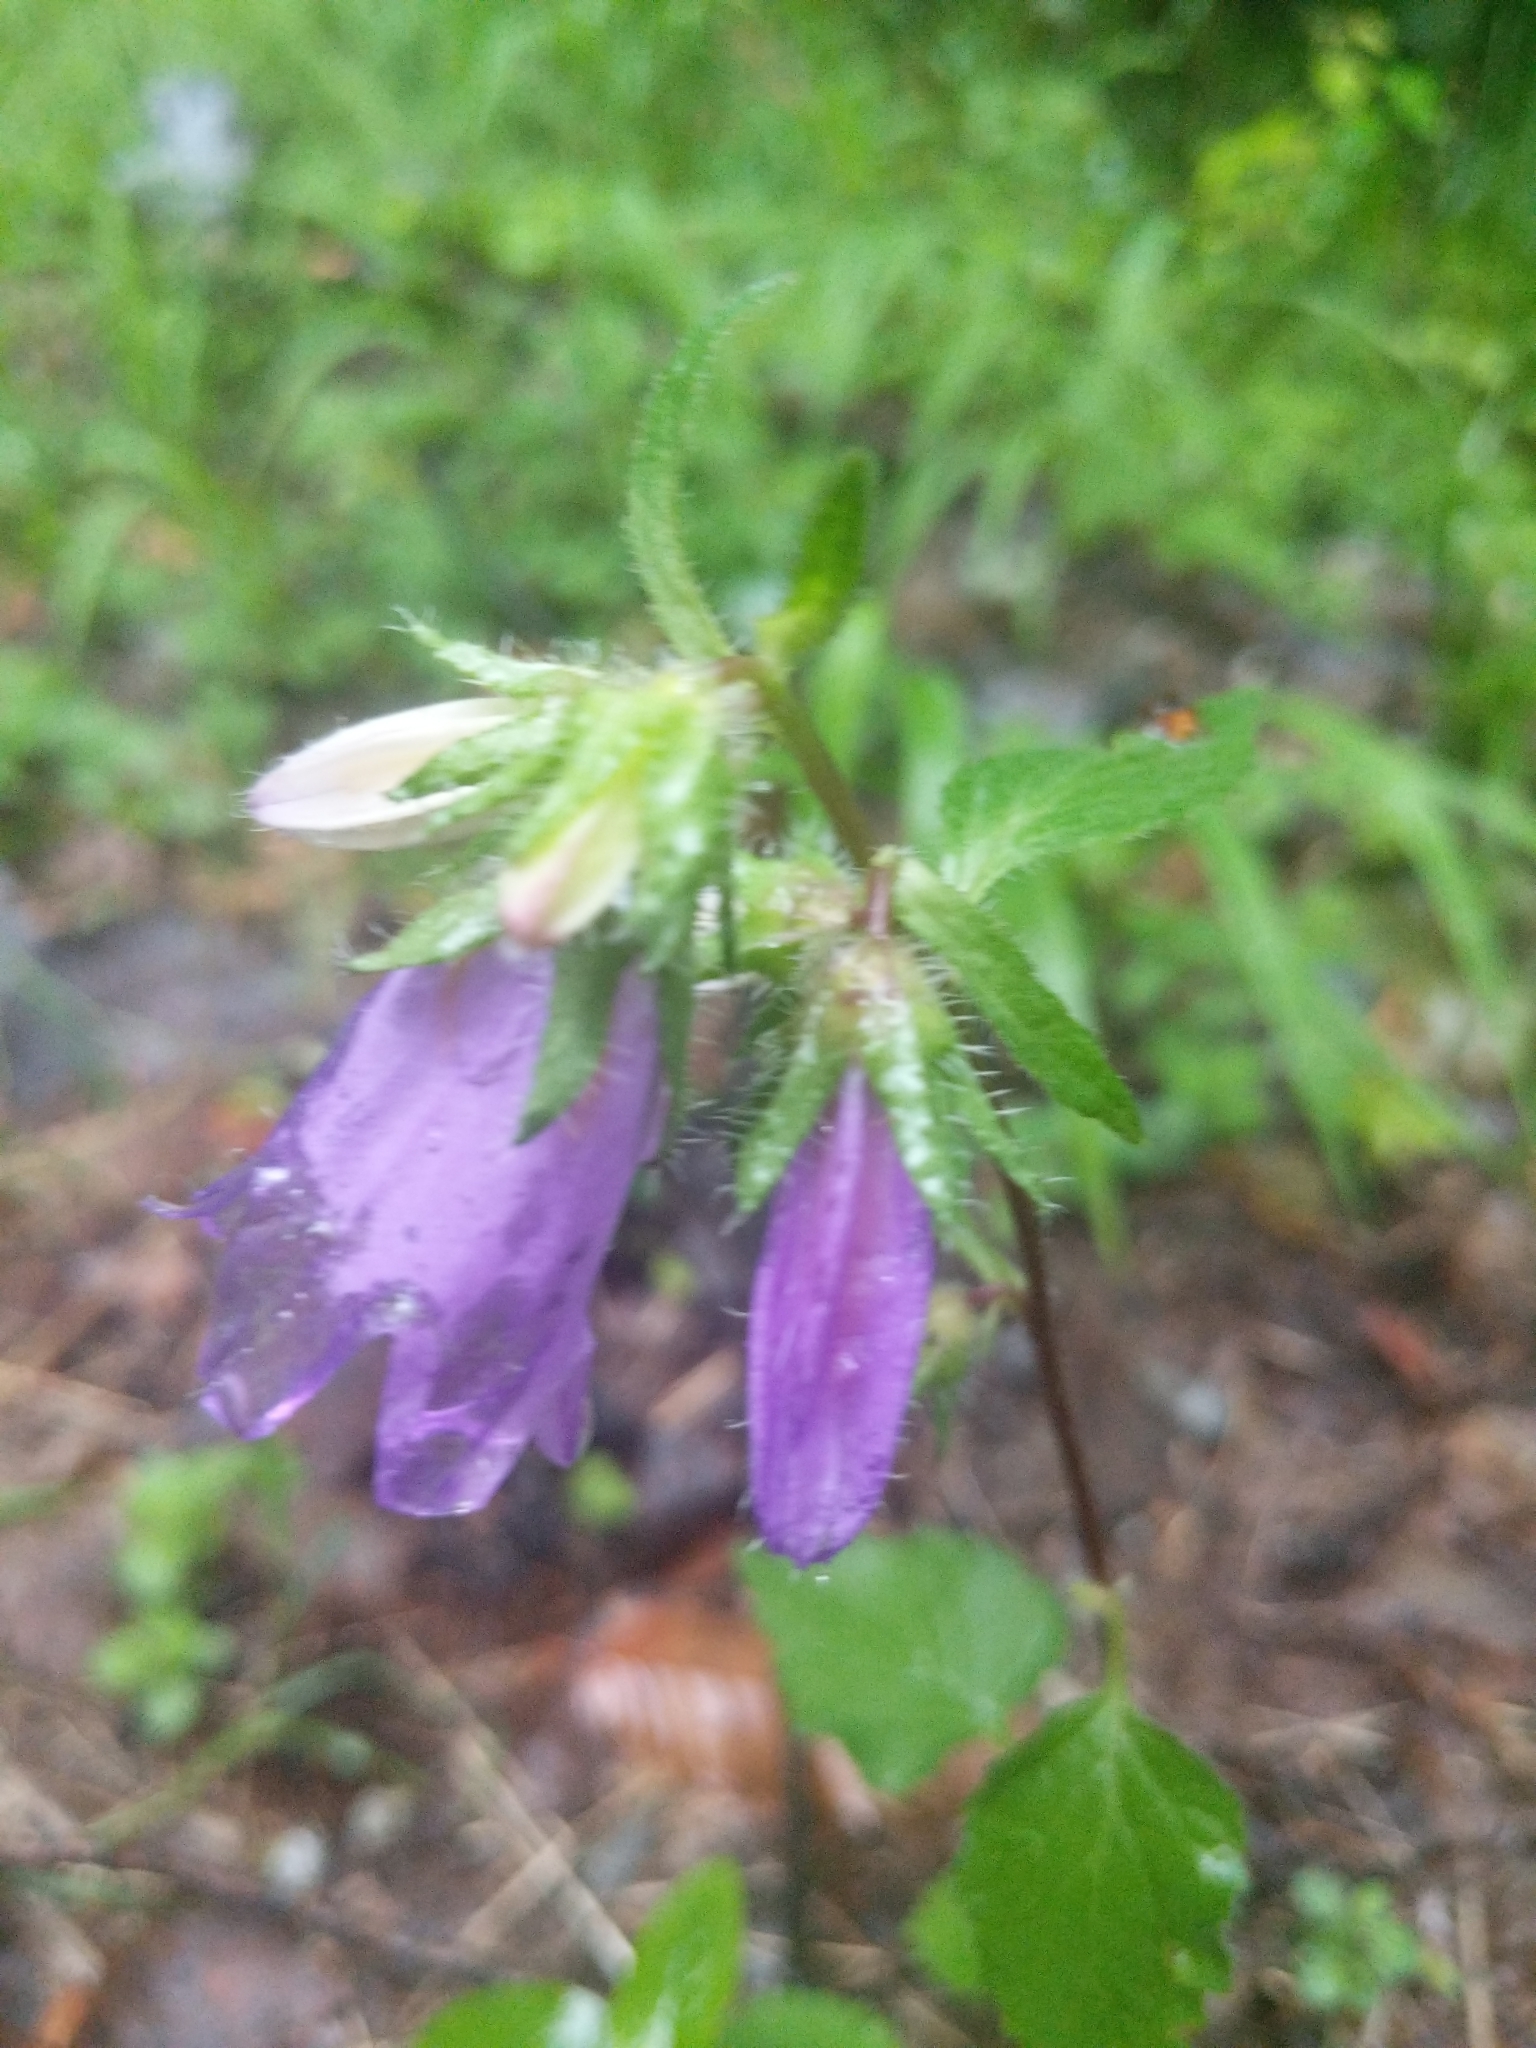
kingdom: Plantae
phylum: Tracheophyta
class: Magnoliopsida
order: Asterales
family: Campanulaceae
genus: Campanula
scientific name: Campanula trachelium
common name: Nettle-leaved bellflower
